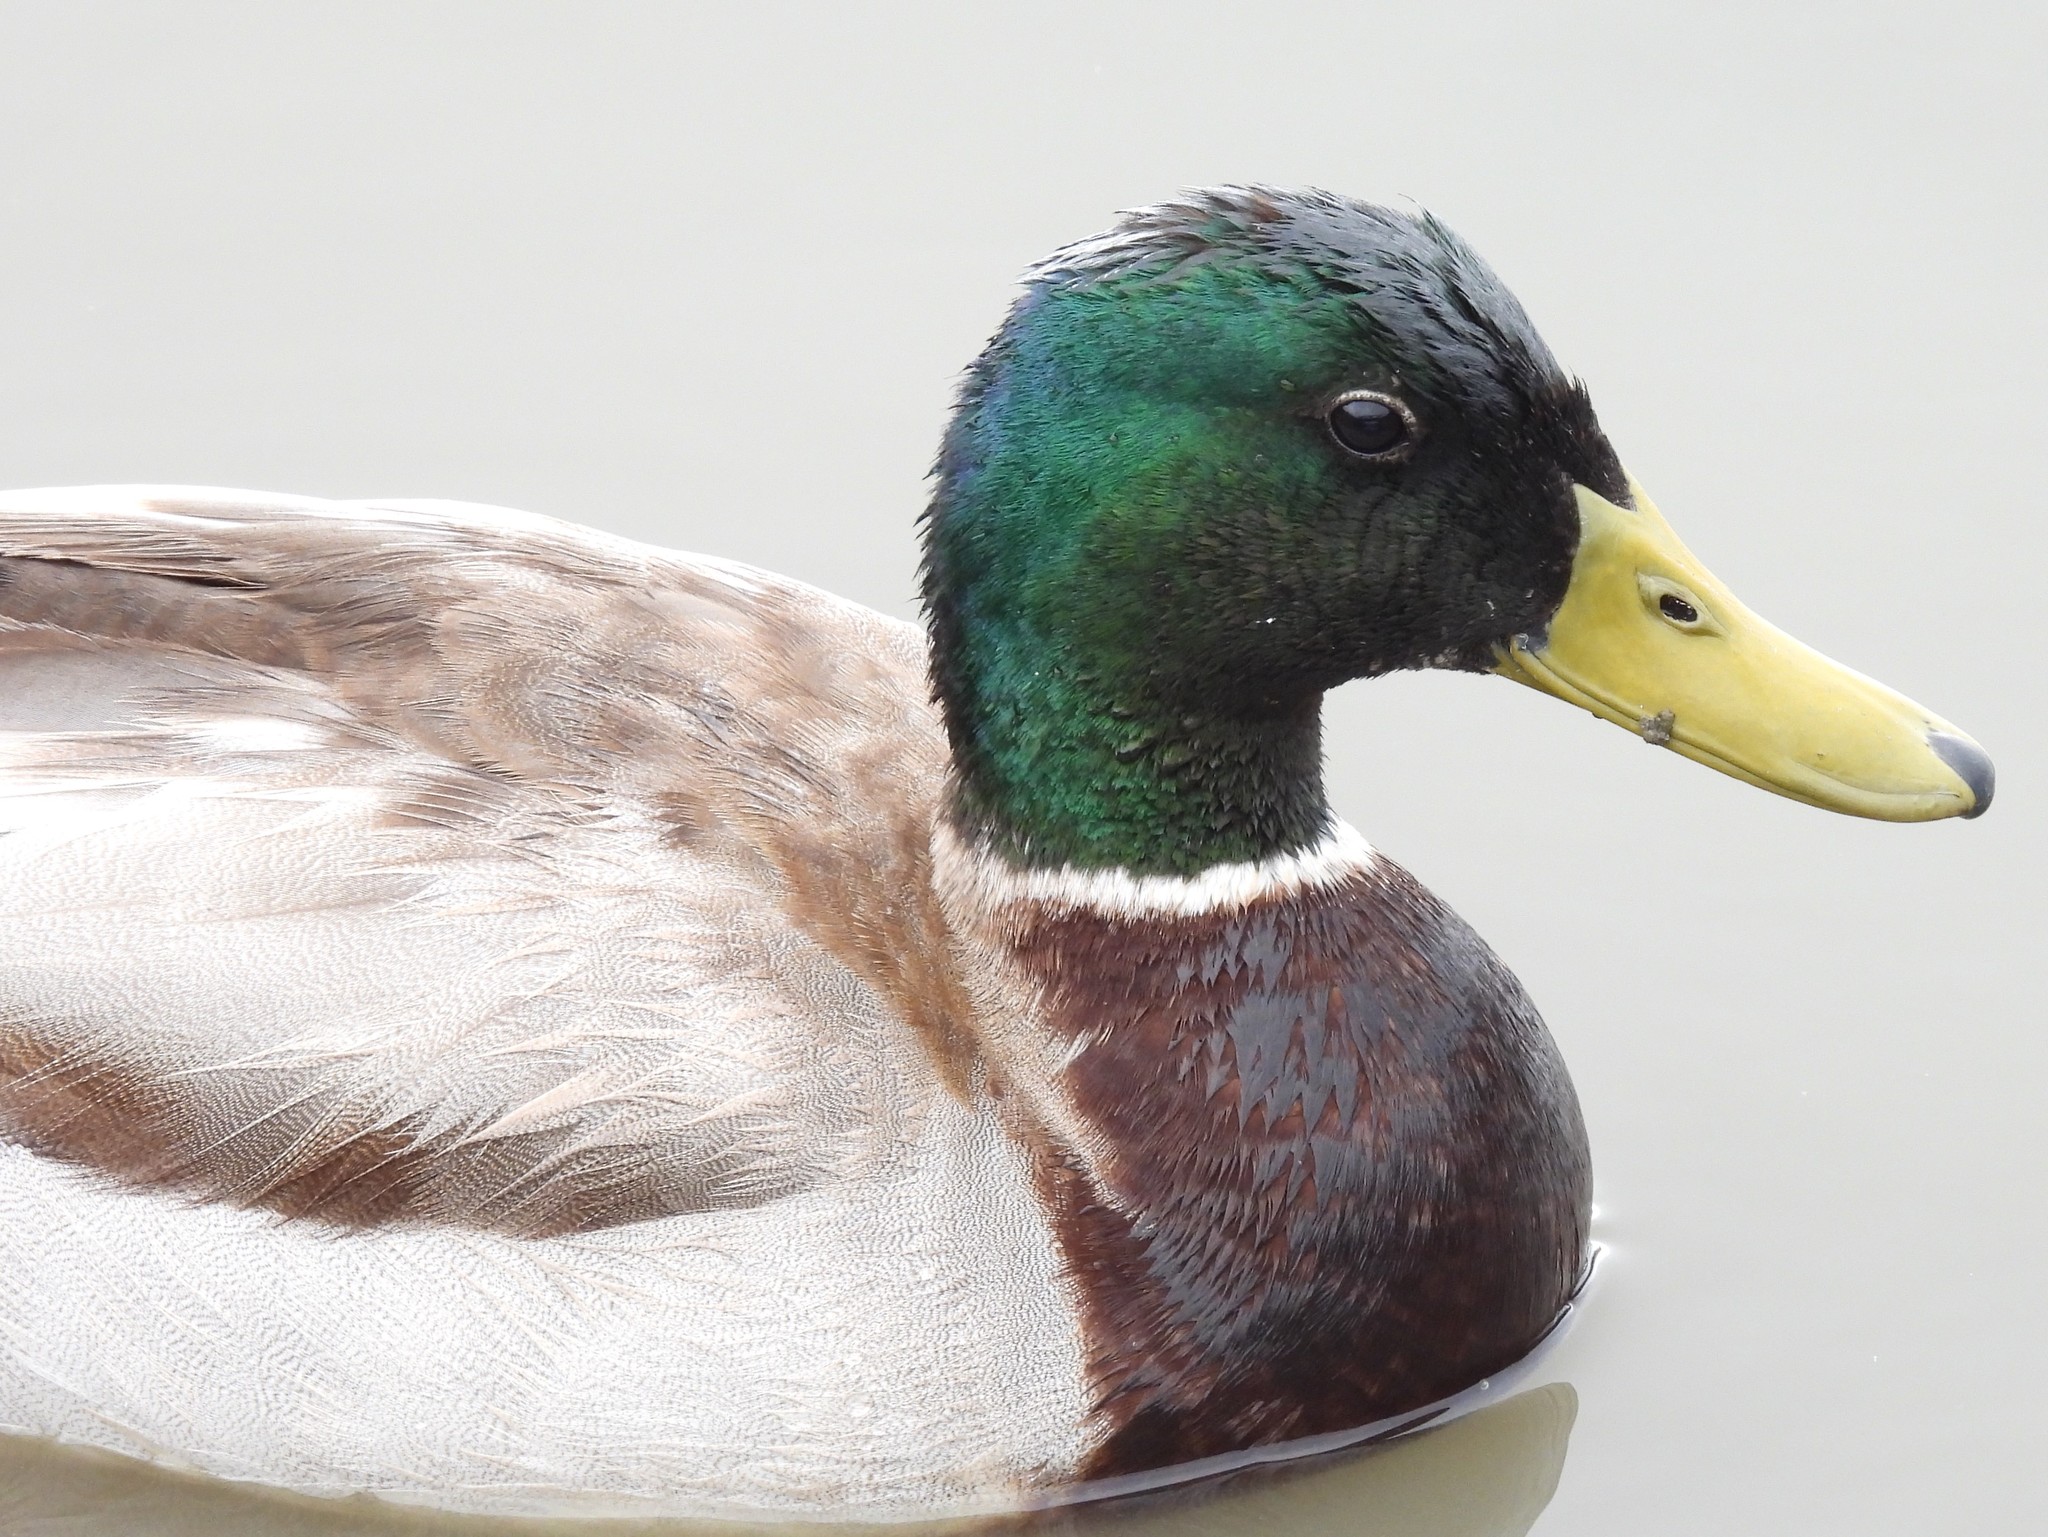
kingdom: Animalia
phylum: Chordata
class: Aves
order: Anseriformes
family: Anatidae
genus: Anas
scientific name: Anas platyrhynchos
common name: Mallard
